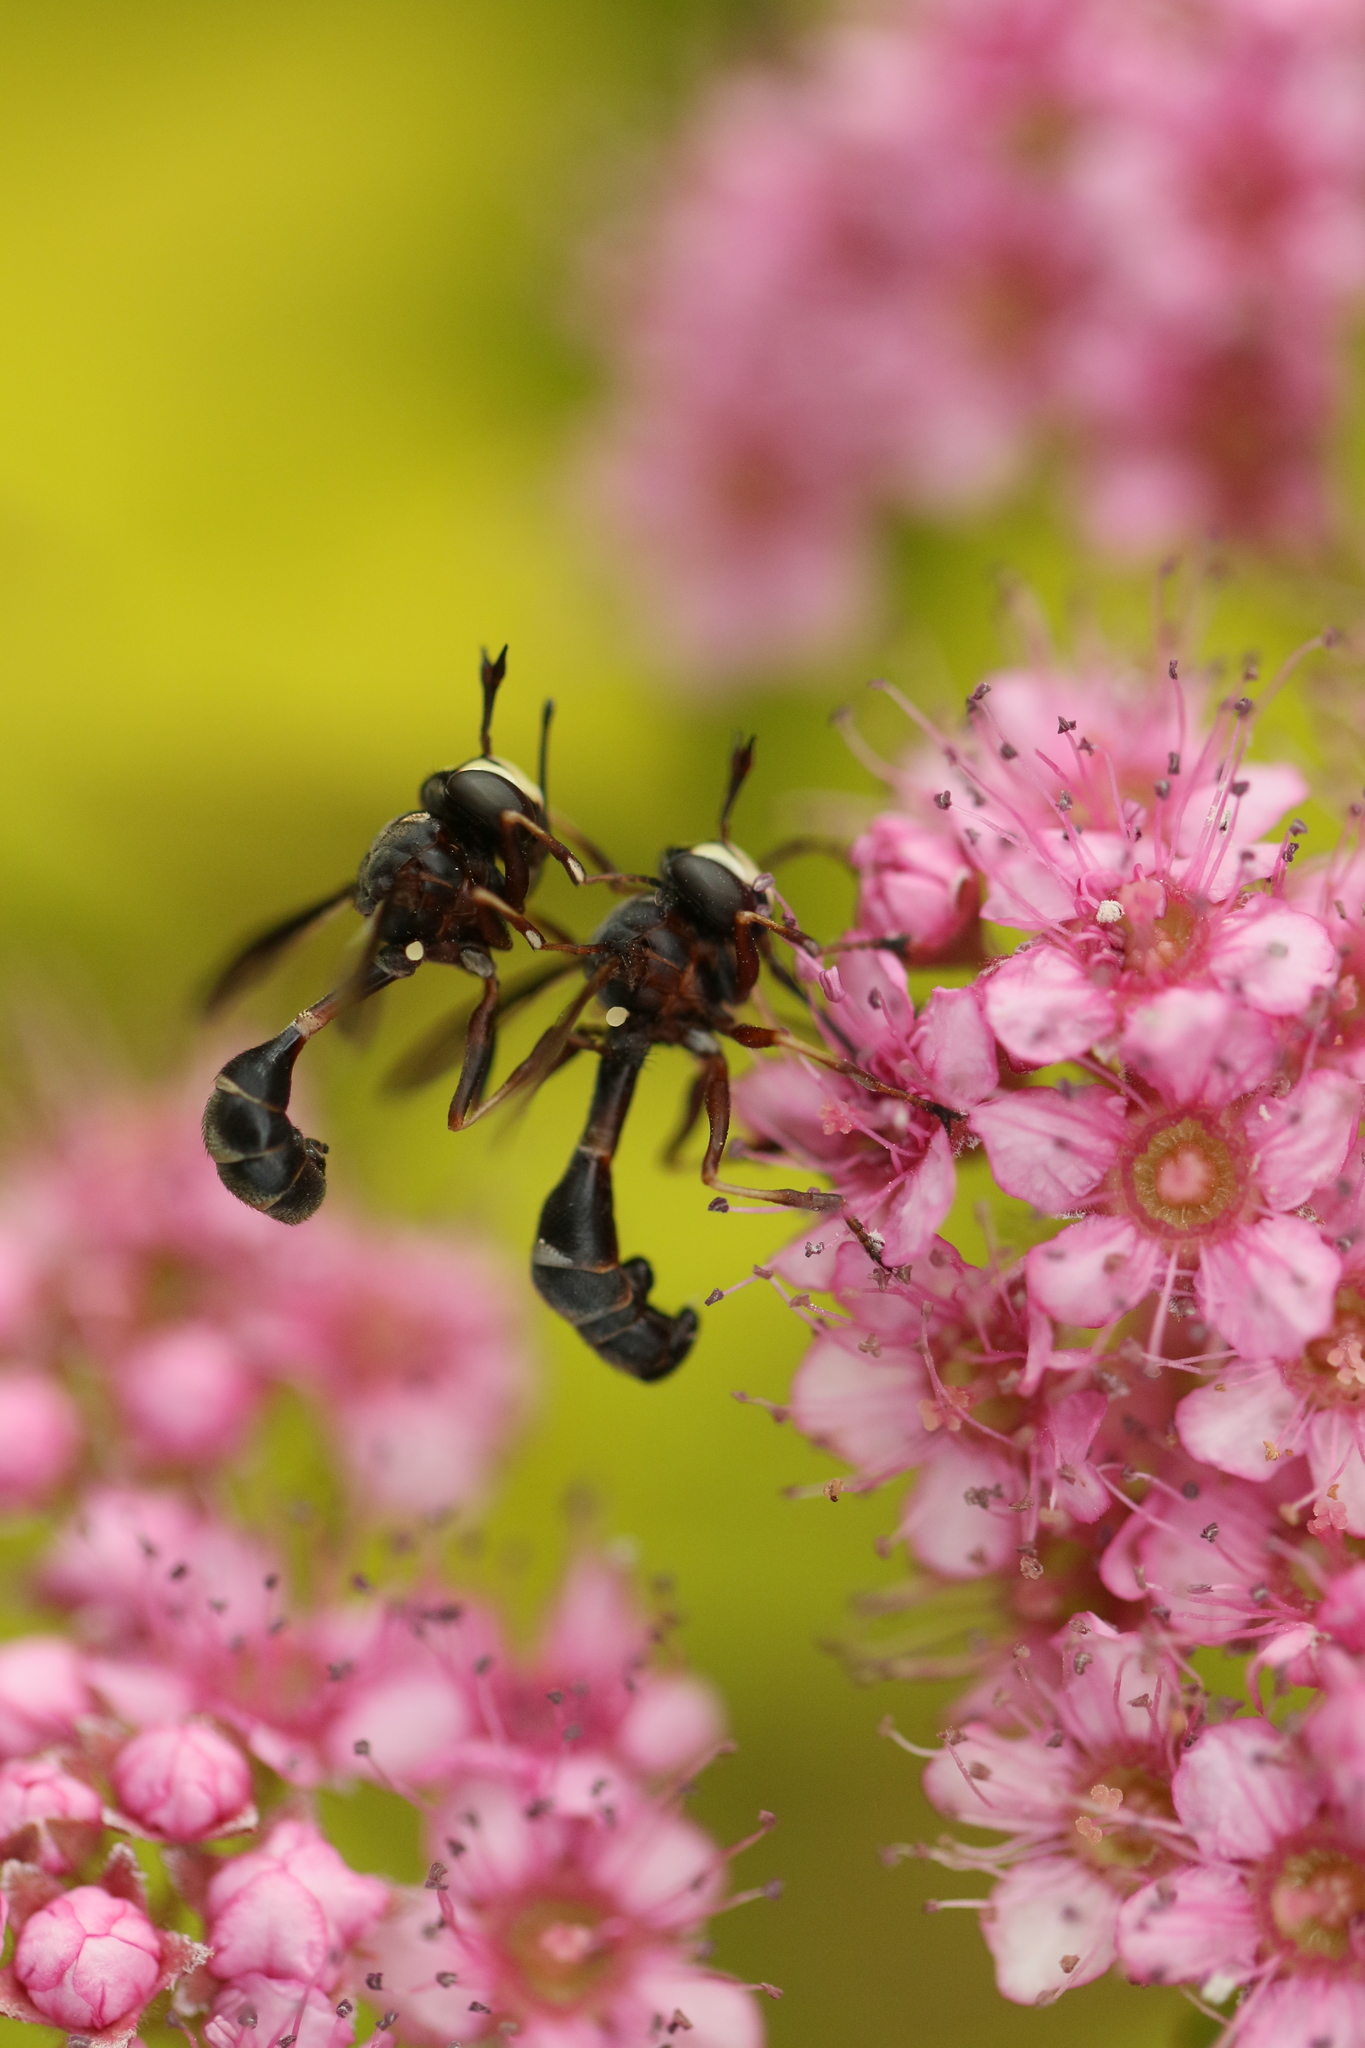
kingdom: Animalia
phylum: Arthropoda
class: Insecta
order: Diptera
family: Conopidae
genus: Physocephala
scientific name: Physocephala furcillata
